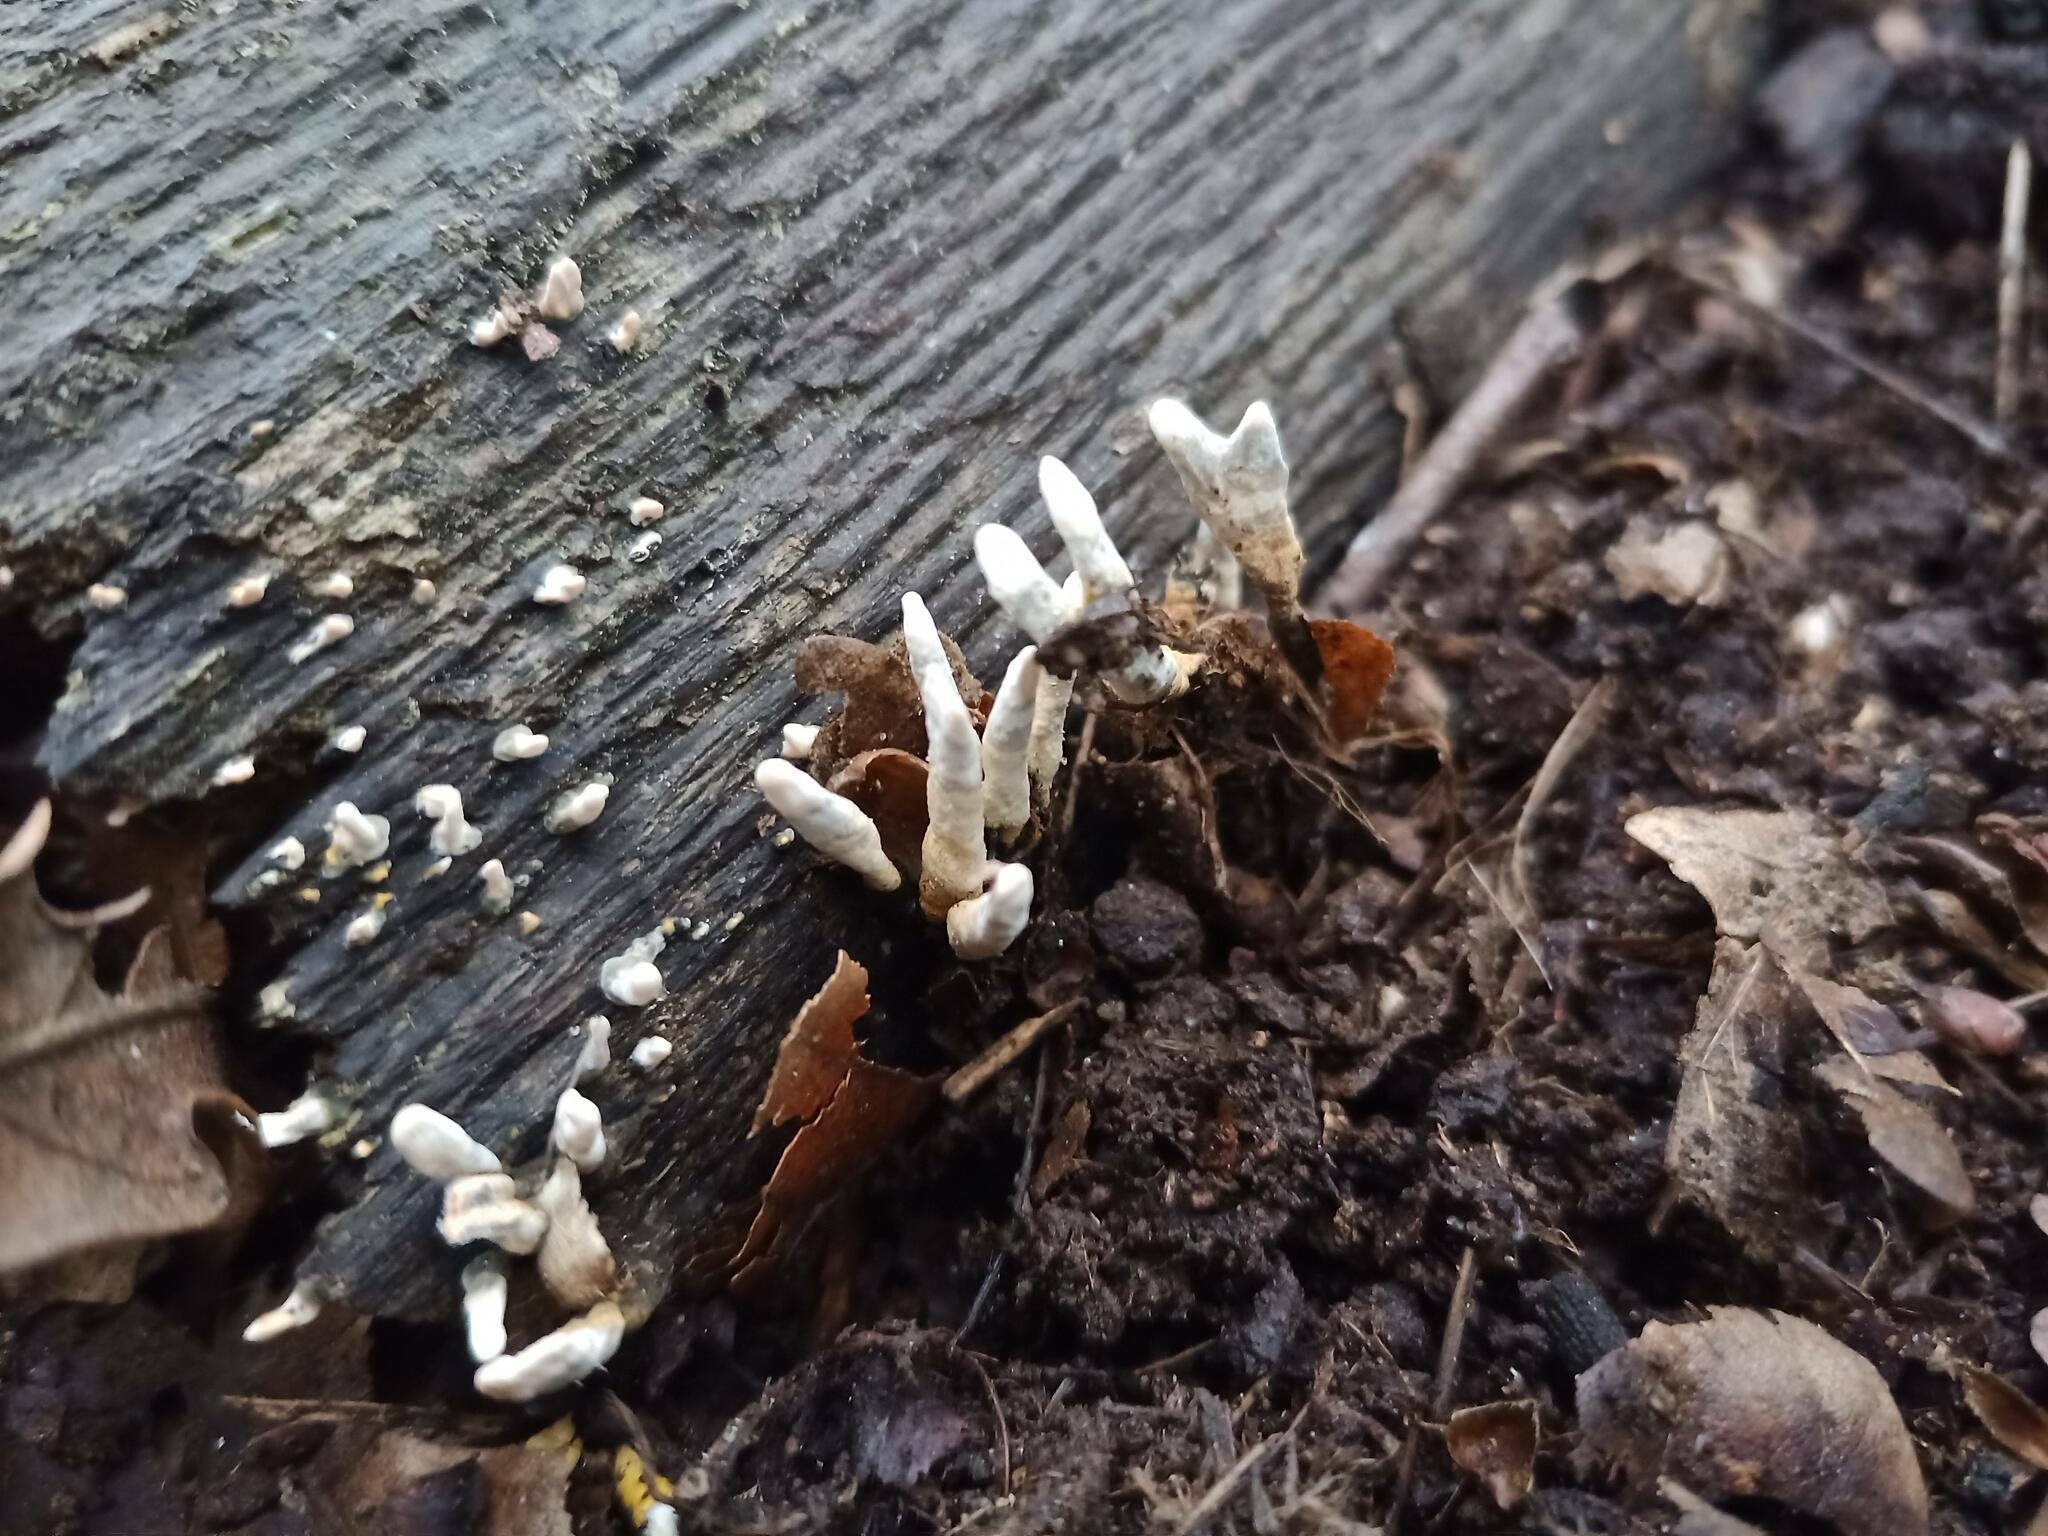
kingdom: Fungi
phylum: Ascomycota
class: Sordariomycetes
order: Xylariales
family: Xylariaceae
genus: Xylaria
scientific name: Xylaria hypoxylon
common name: Candle-snuff fungus
